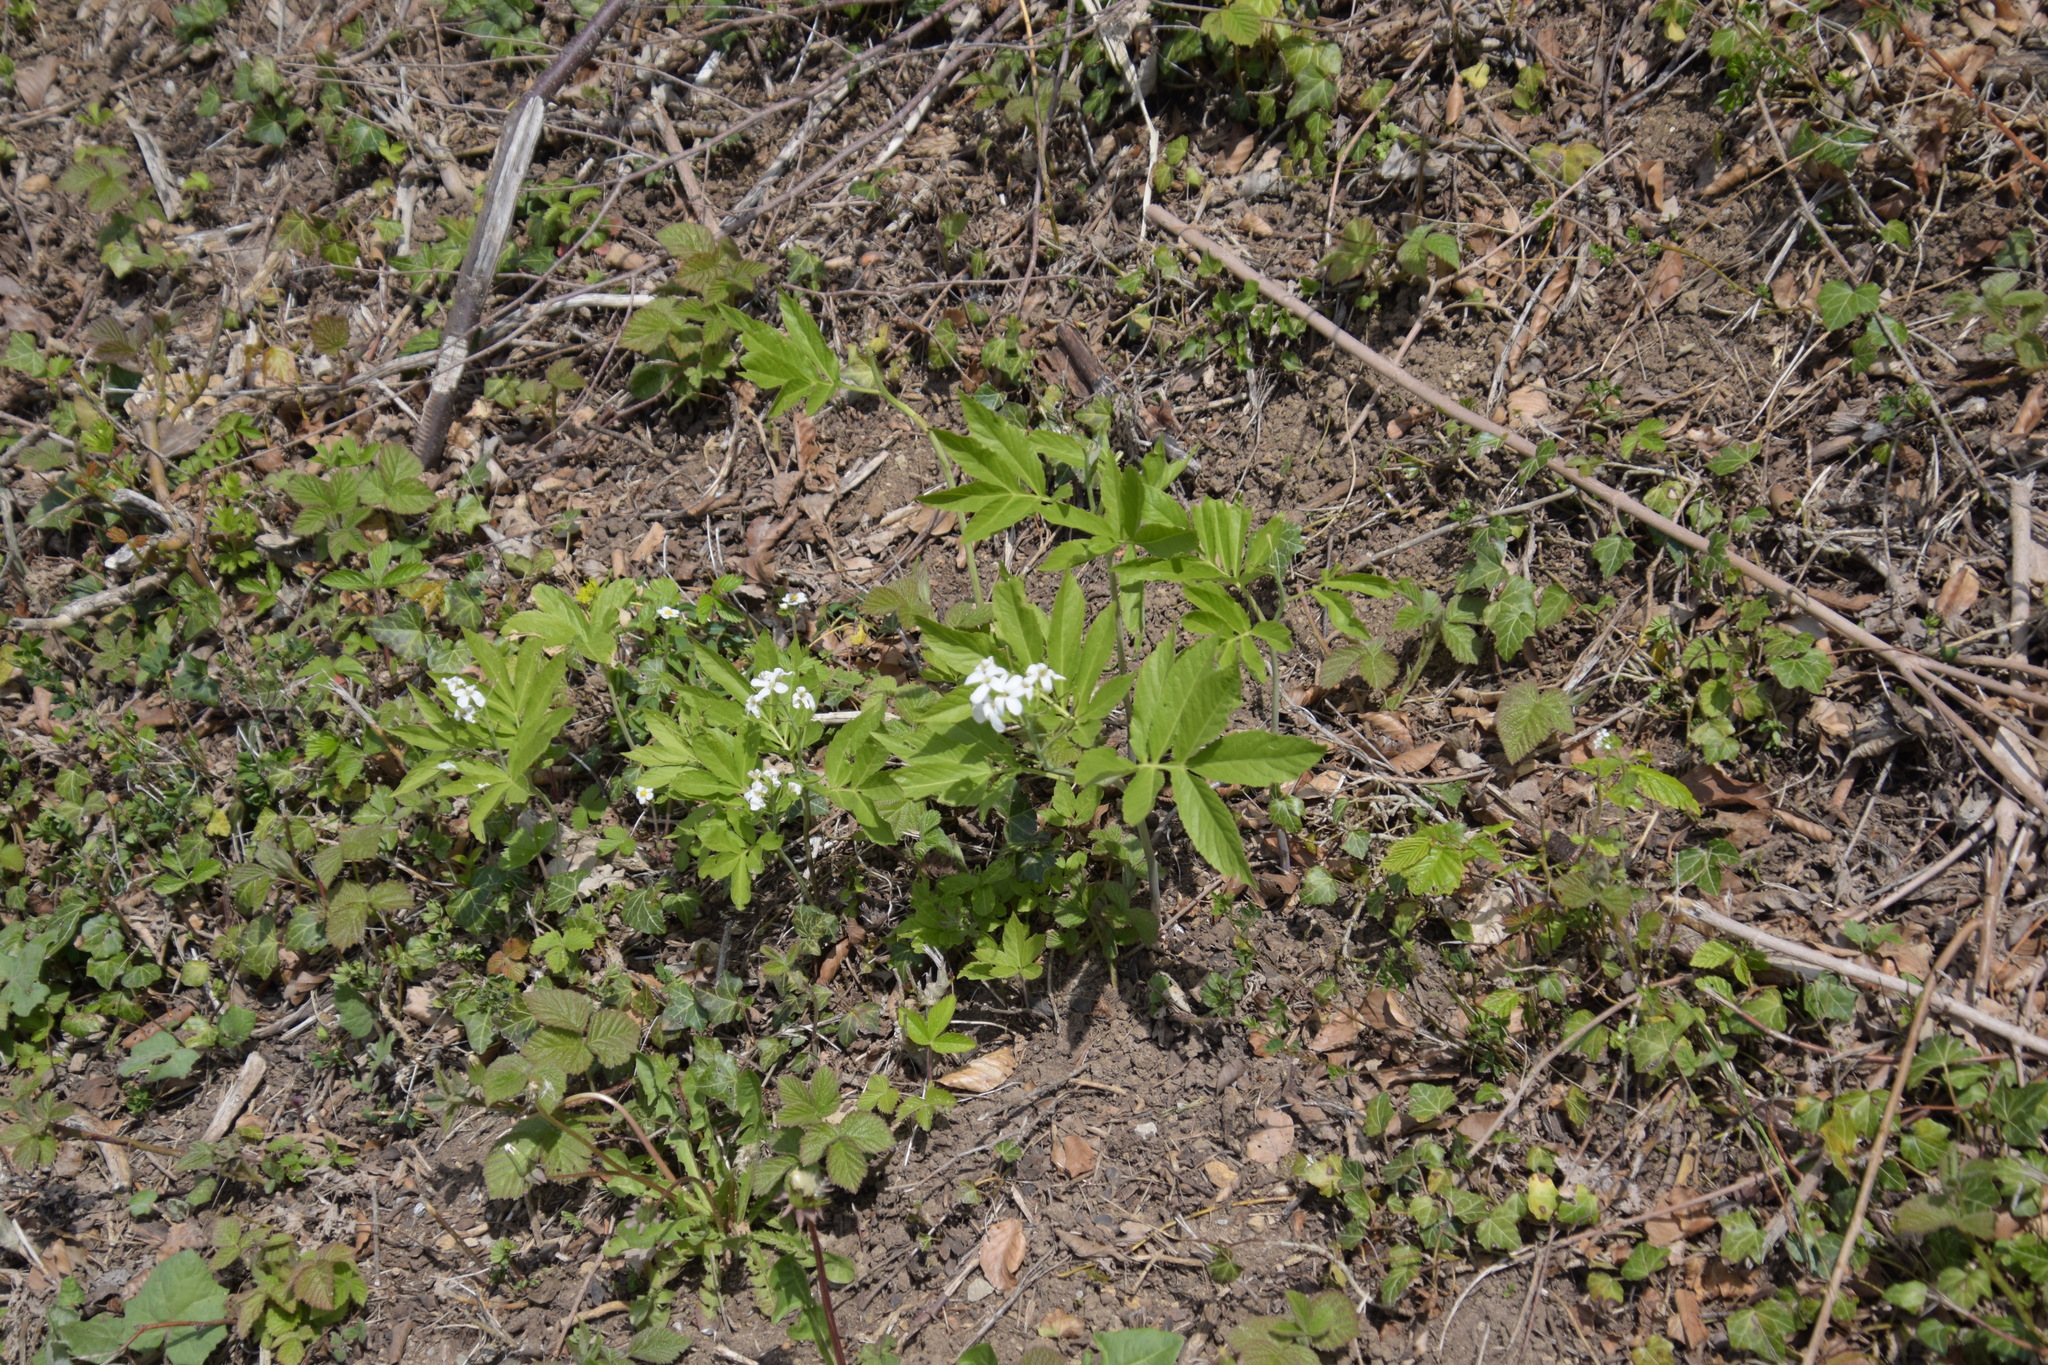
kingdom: Plantae
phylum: Tracheophyta
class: Magnoliopsida
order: Brassicales
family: Brassicaceae
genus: Cardamine
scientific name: Cardamine heptaphylla
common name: Pinnate coralroot
